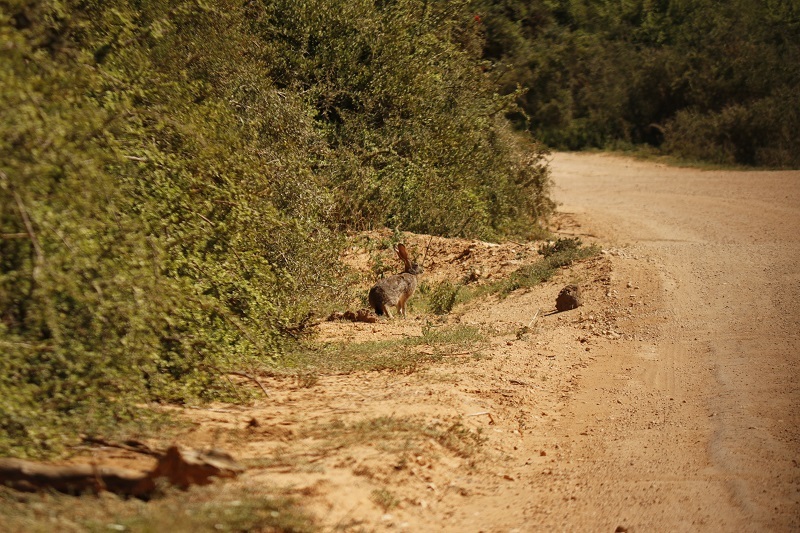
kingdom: Animalia
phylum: Chordata
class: Mammalia
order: Lagomorpha
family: Leporidae
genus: Lepus
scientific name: Lepus saxatilis
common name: Scrub hare
